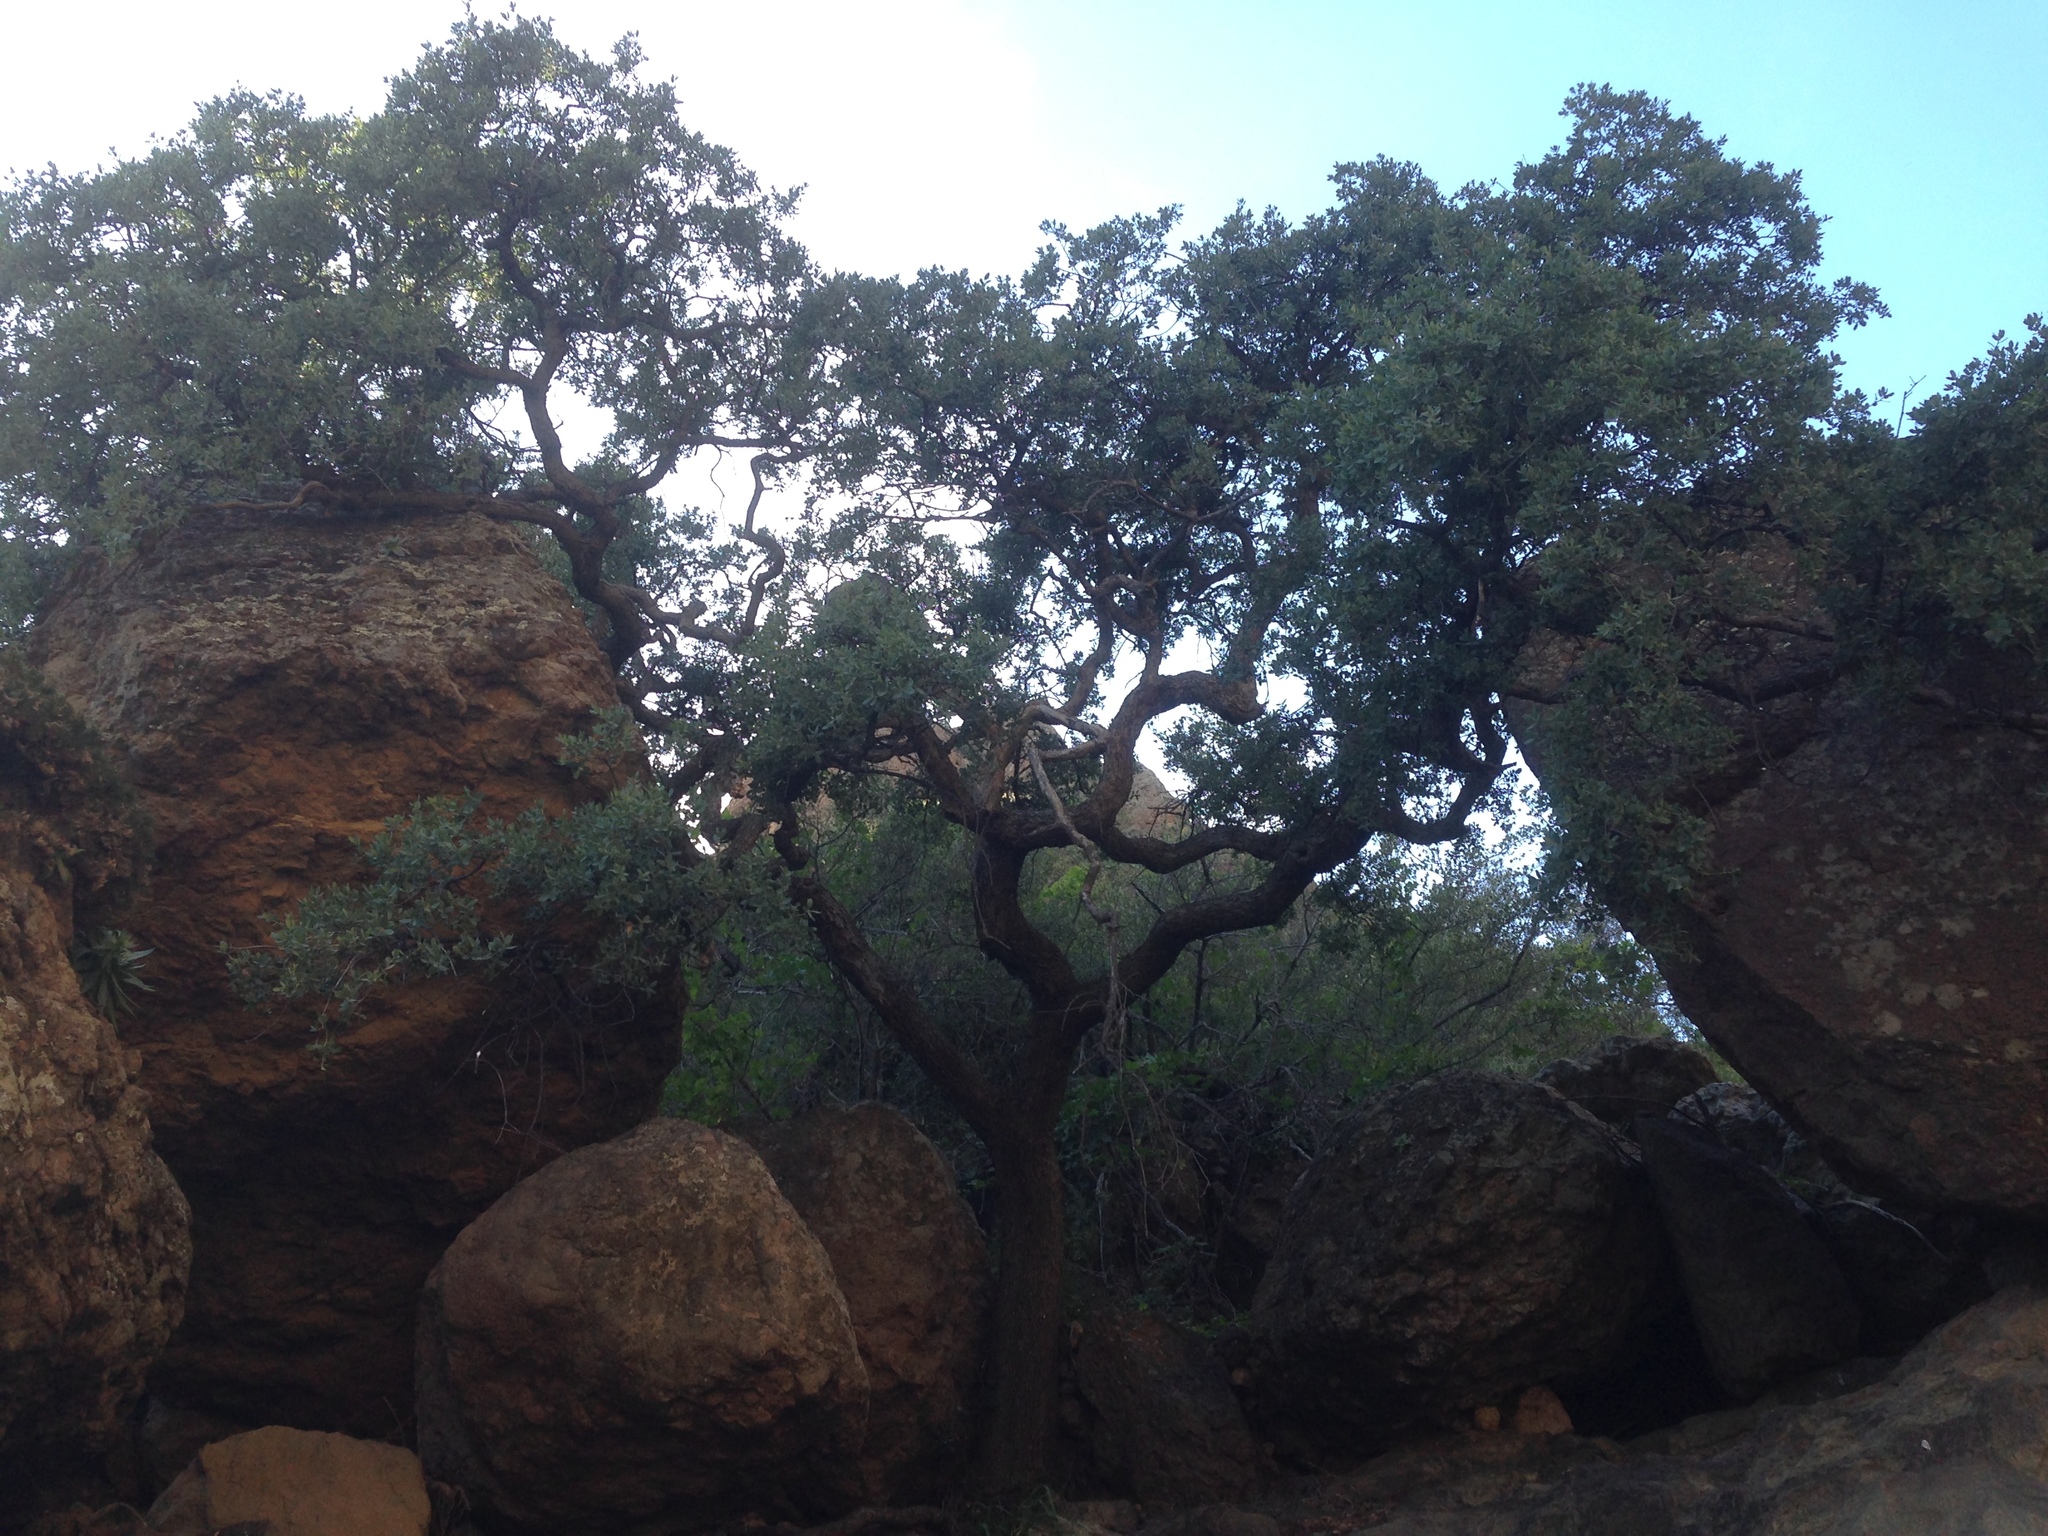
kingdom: Plantae
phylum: Tracheophyta
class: Magnoliopsida
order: Fagales
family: Fagaceae
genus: Quercus
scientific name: Quercus pacifica
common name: Channel island scrub oak
